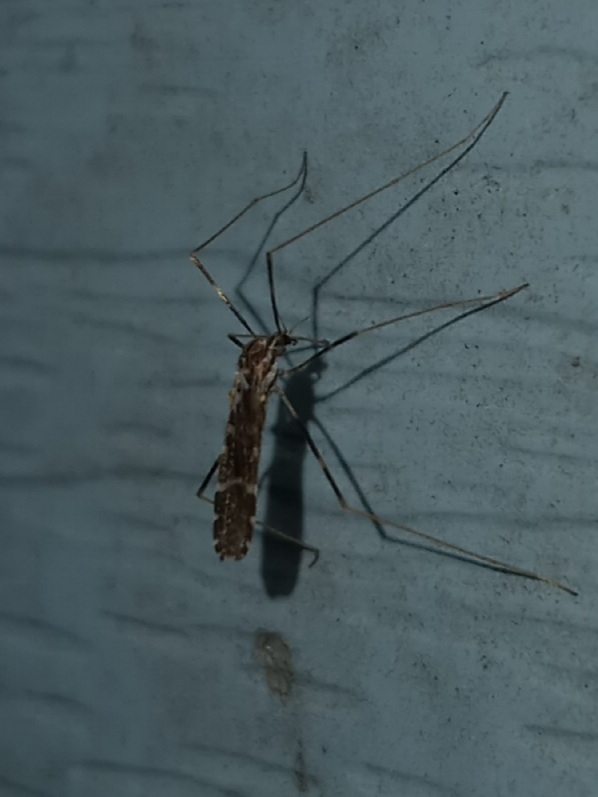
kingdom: Animalia
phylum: Arthropoda
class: Insecta
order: Diptera
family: Limoniidae
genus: Erioptera
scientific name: Erioptera caliptera
